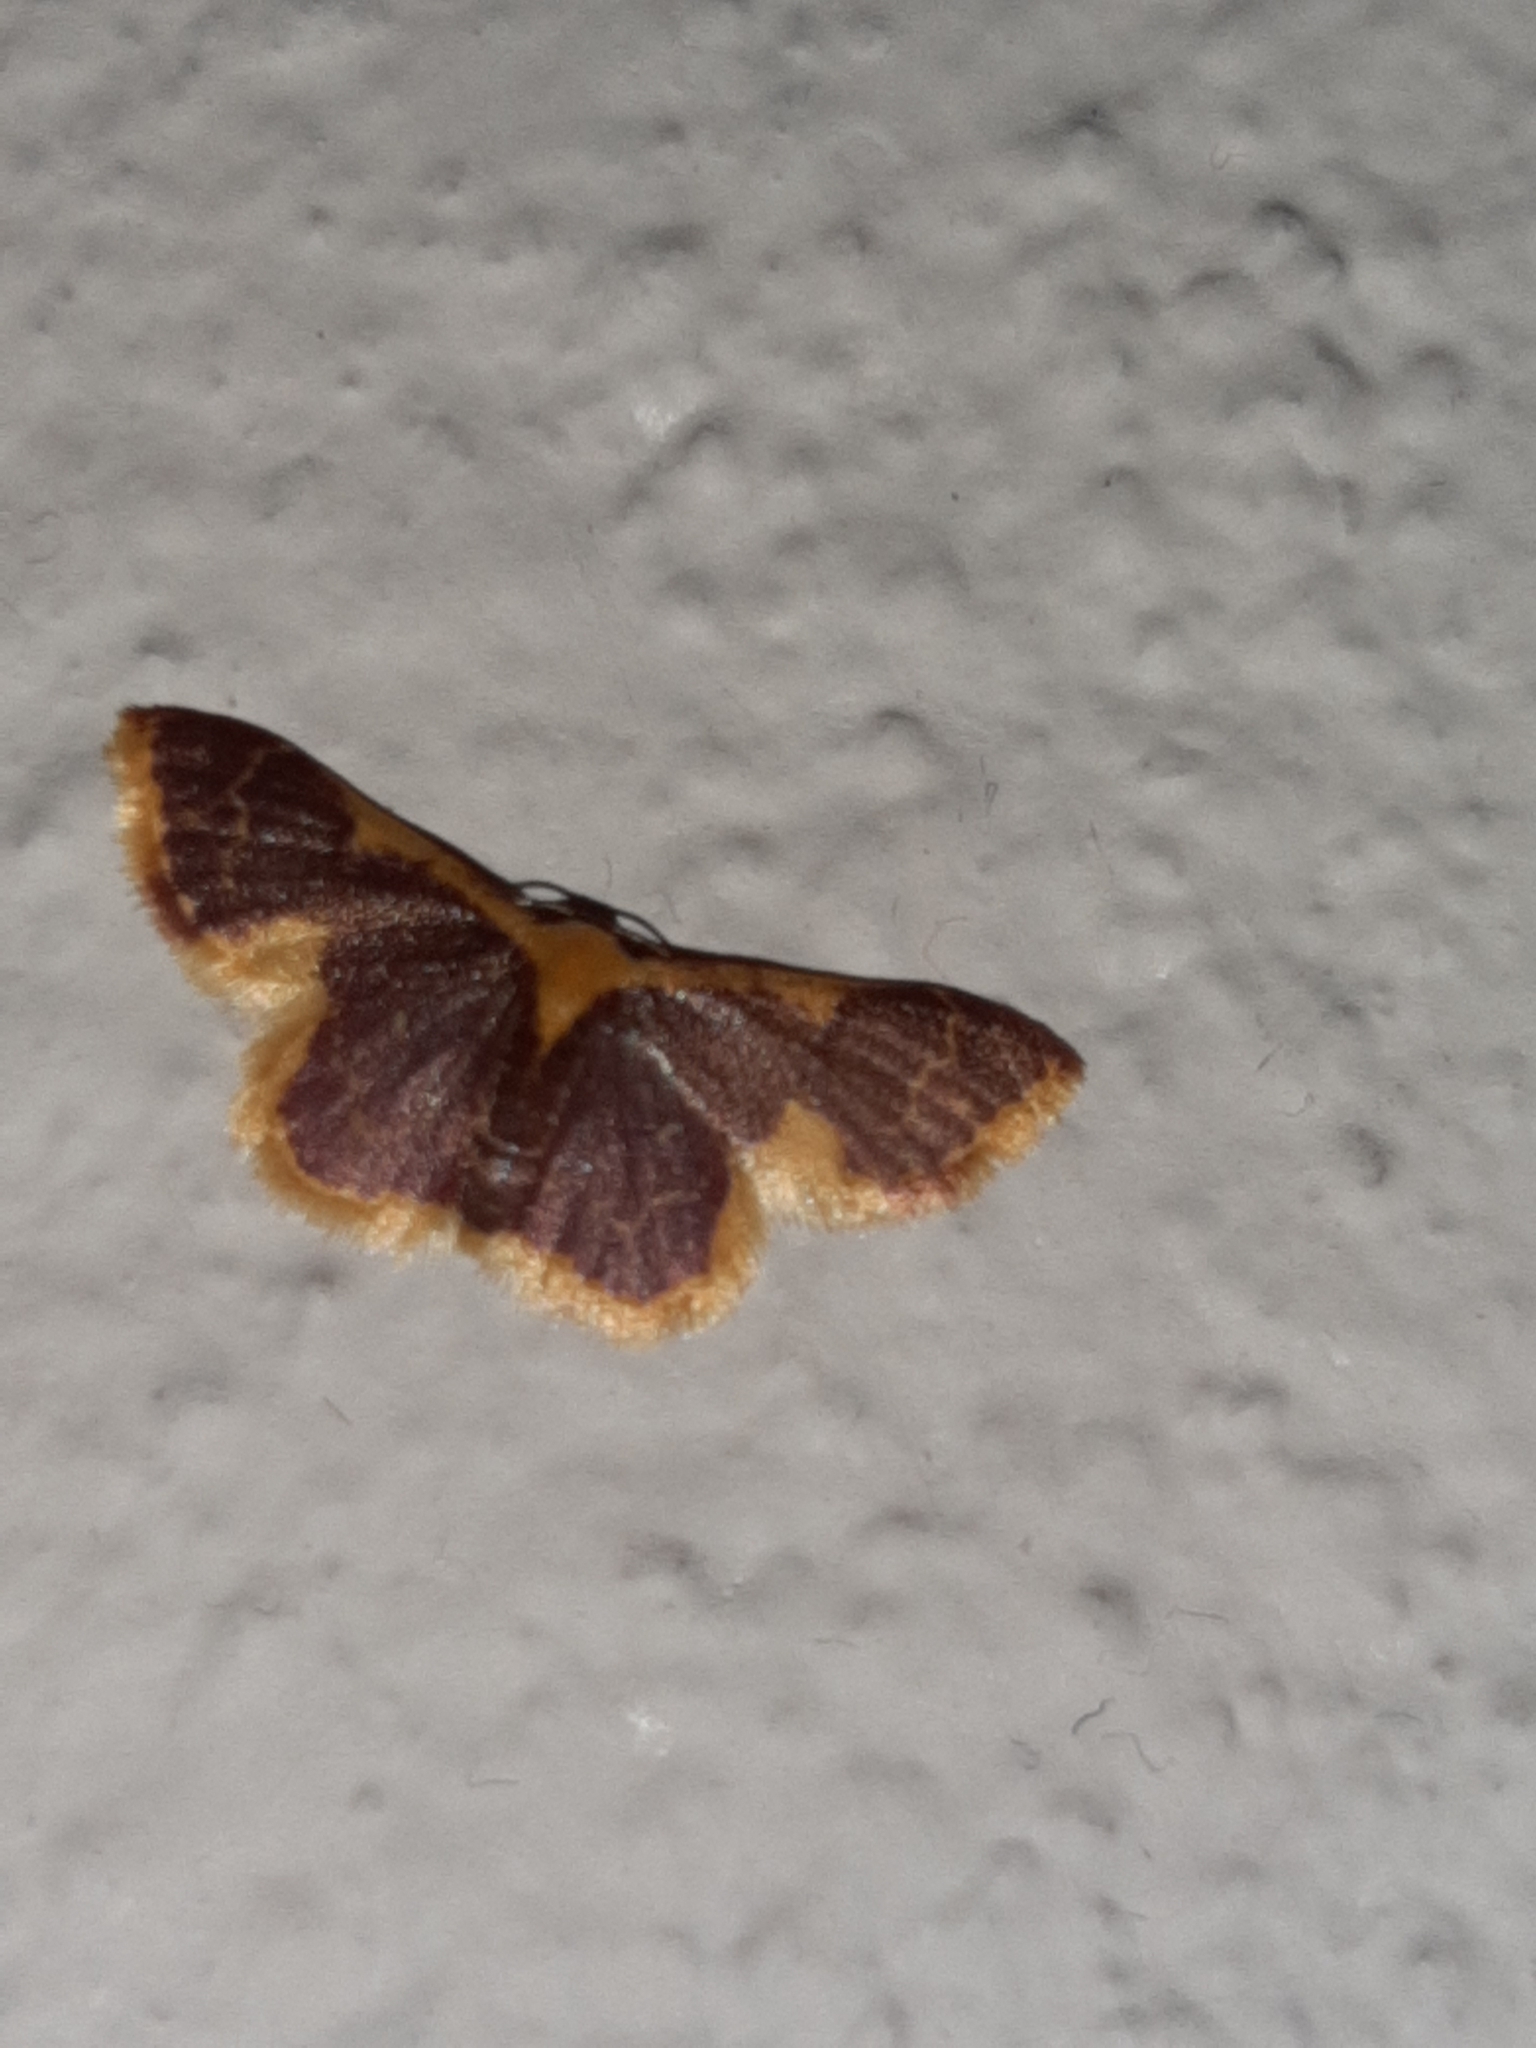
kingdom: Animalia
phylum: Arthropoda
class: Insecta
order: Lepidoptera
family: Geometridae
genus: Idaea
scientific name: Idaea gemma
